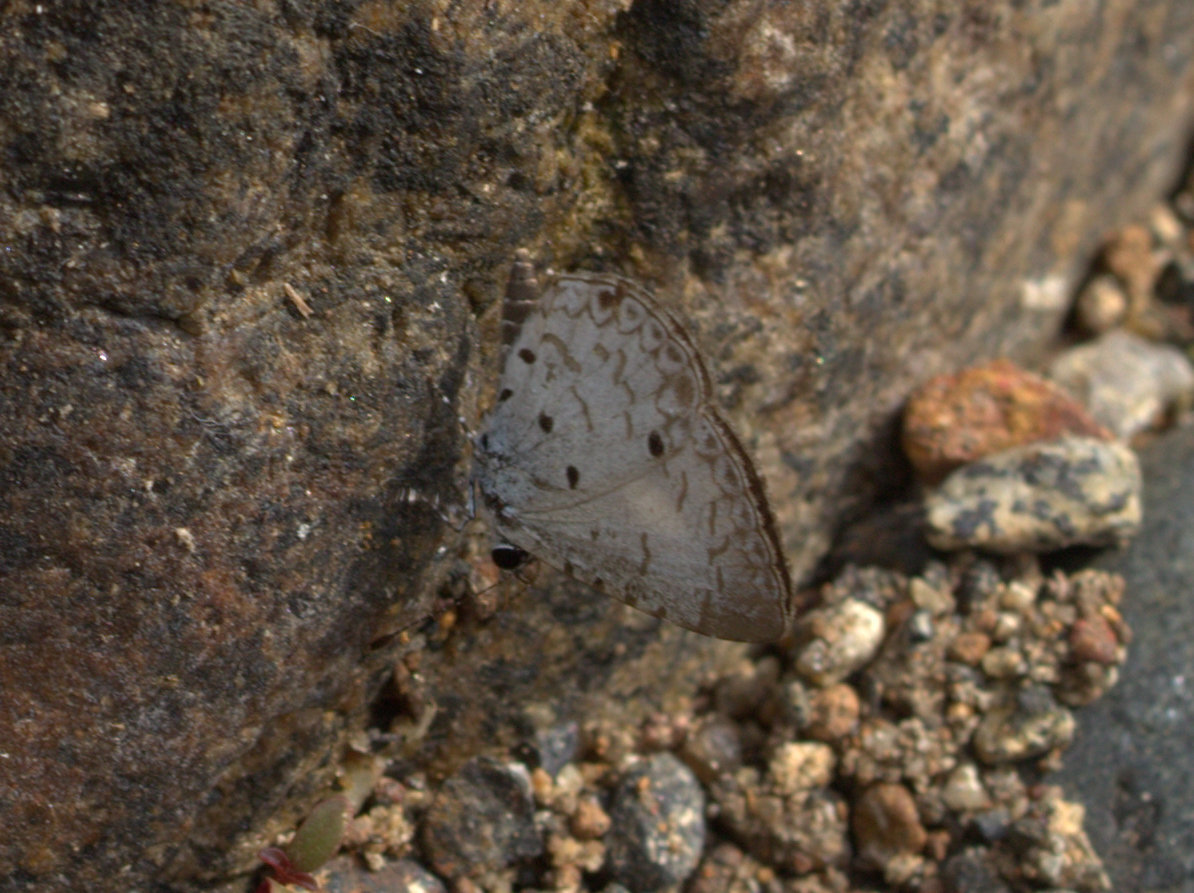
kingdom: Animalia
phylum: Arthropoda
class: Insecta
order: Lepidoptera
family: Lycaenidae
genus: Megisba
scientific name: Megisba malaya
